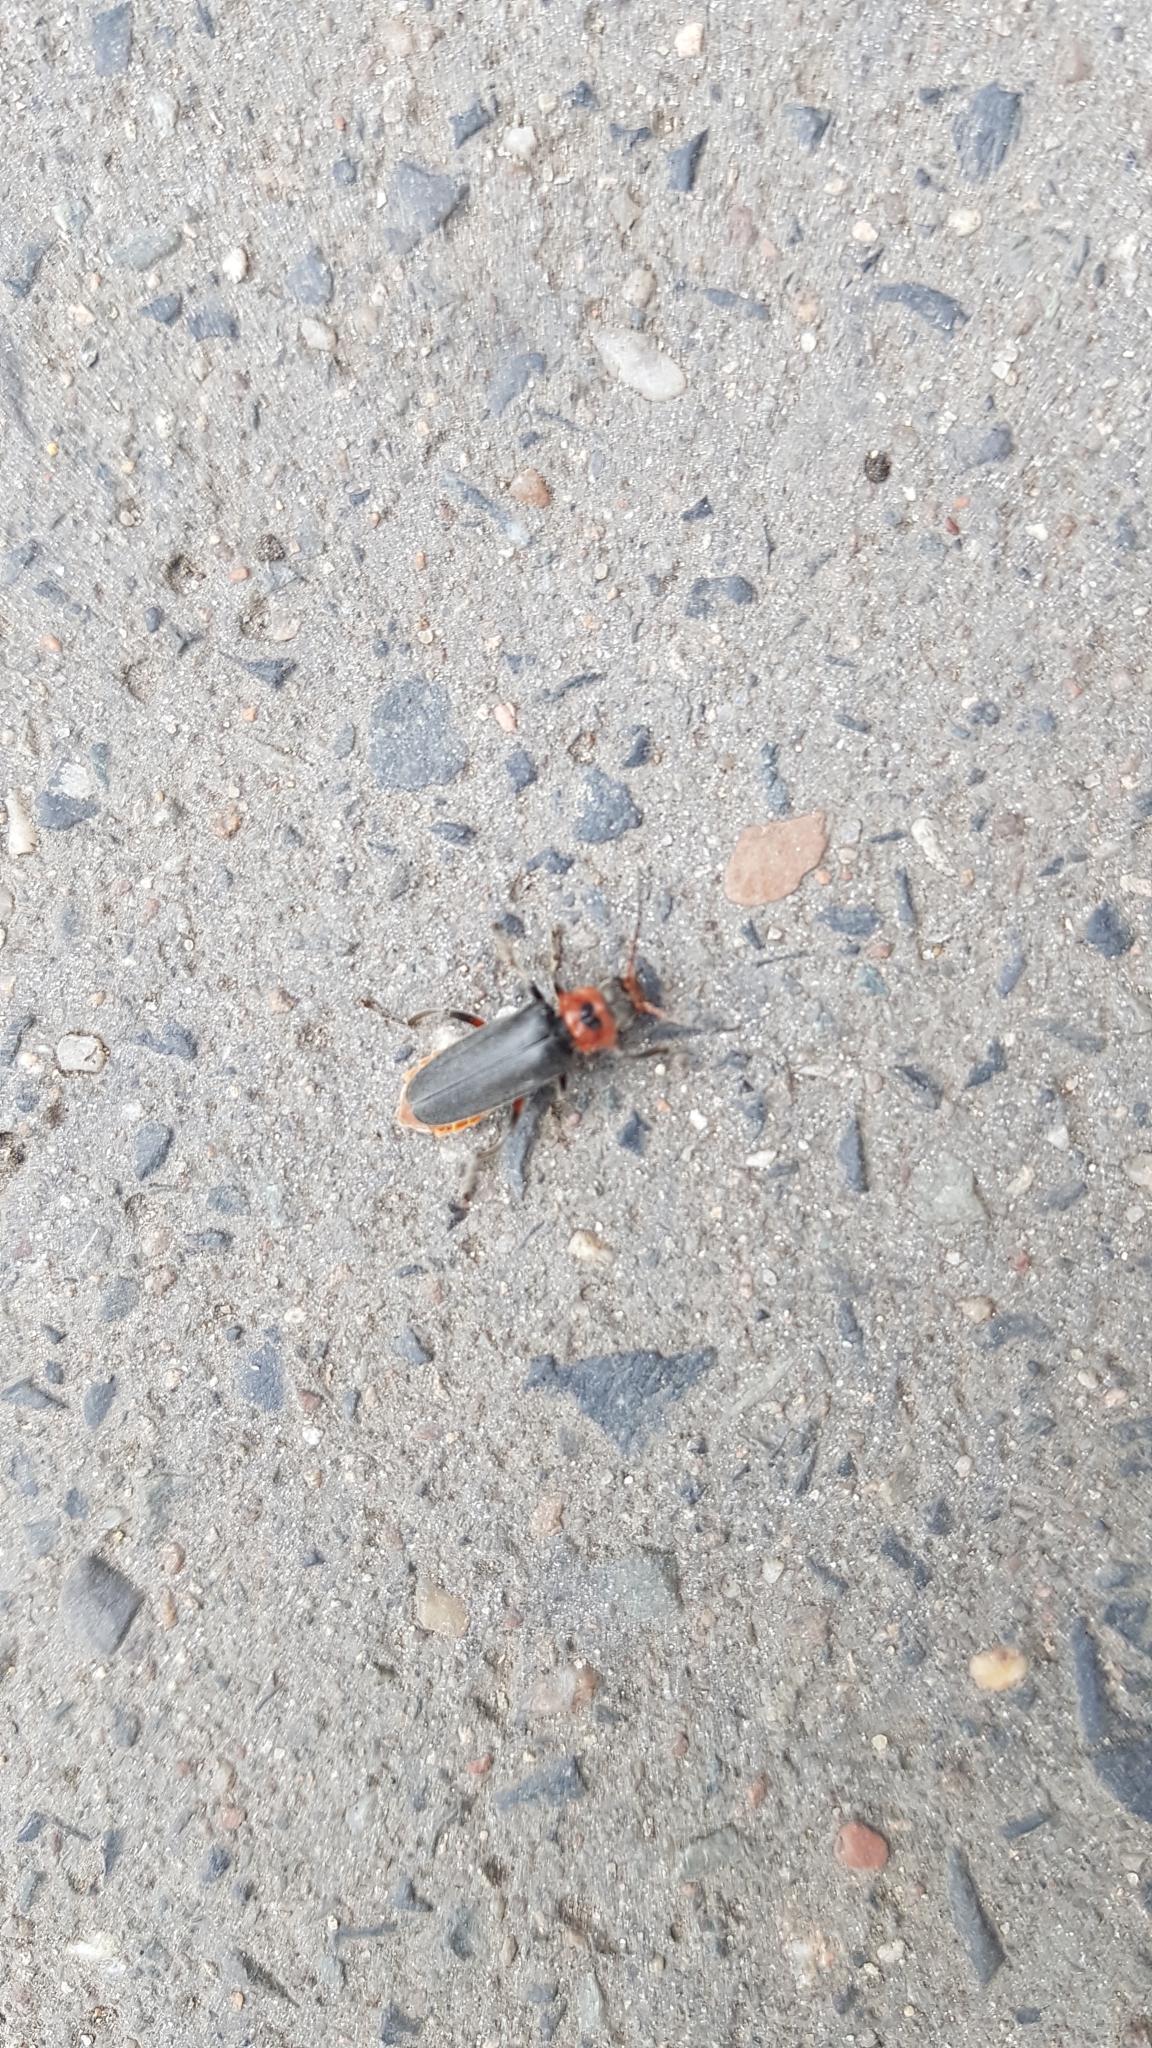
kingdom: Animalia
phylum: Arthropoda
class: Insecta
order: Coleoptera
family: Cantharidae
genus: Cantharis
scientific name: Cantharis rustica
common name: Soldier beetle
